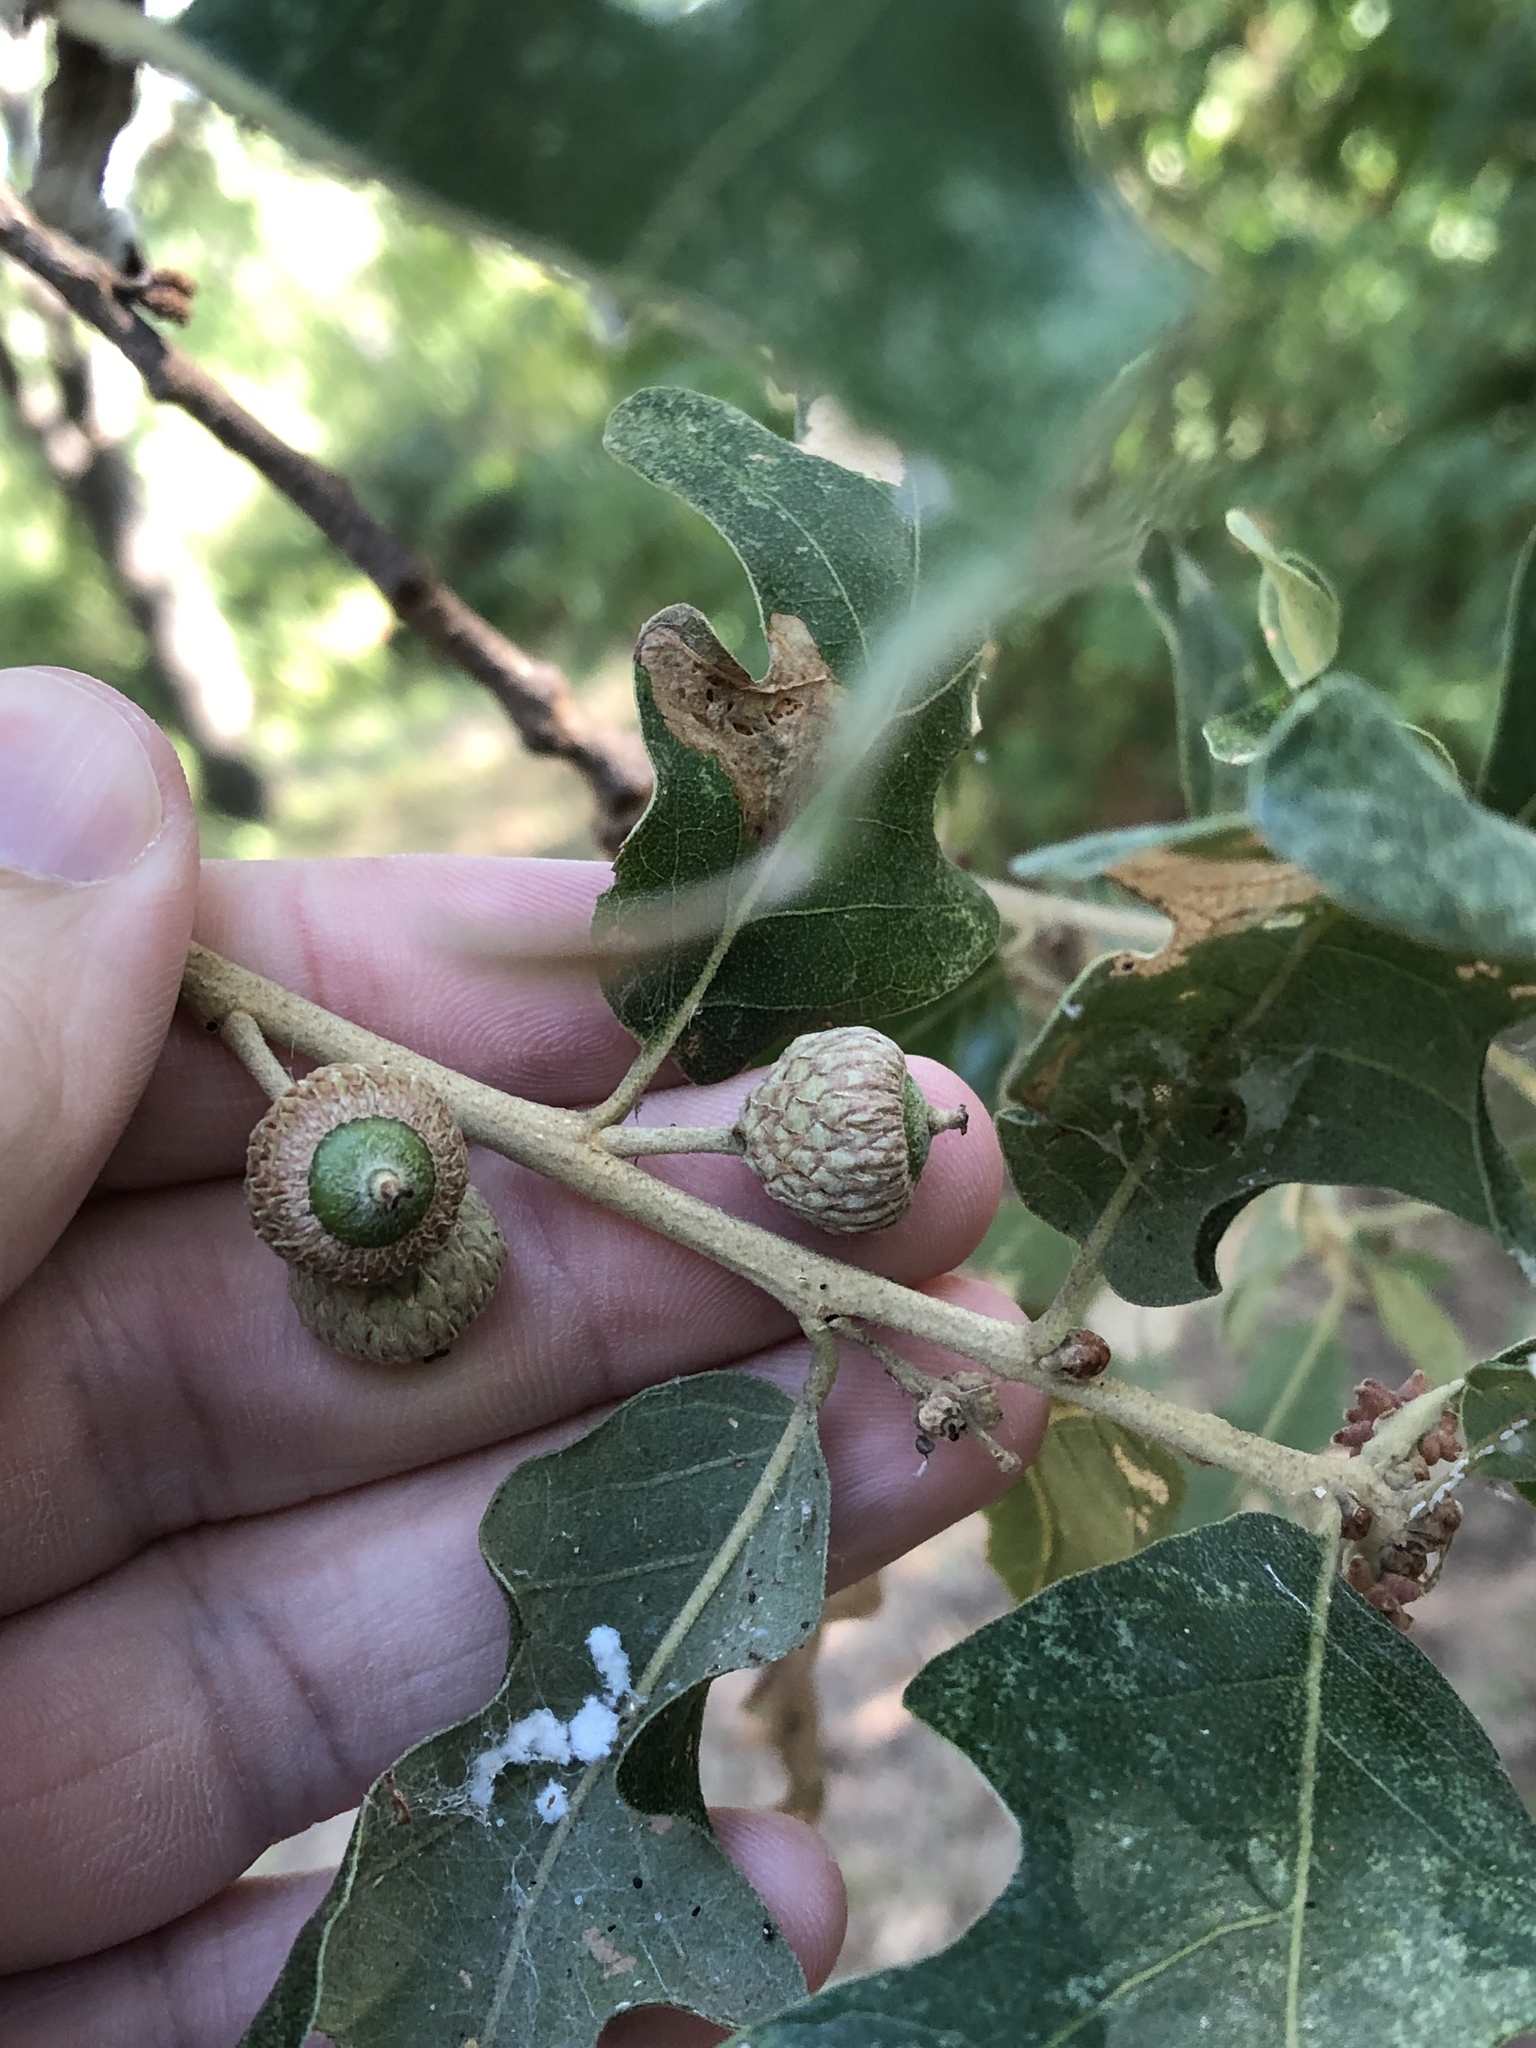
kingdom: Plantae
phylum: Tracheophyta
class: Magnoliopsida
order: Fagales
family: Fagaceae
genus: Quercus
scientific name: Quercus stellata
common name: Post oak
